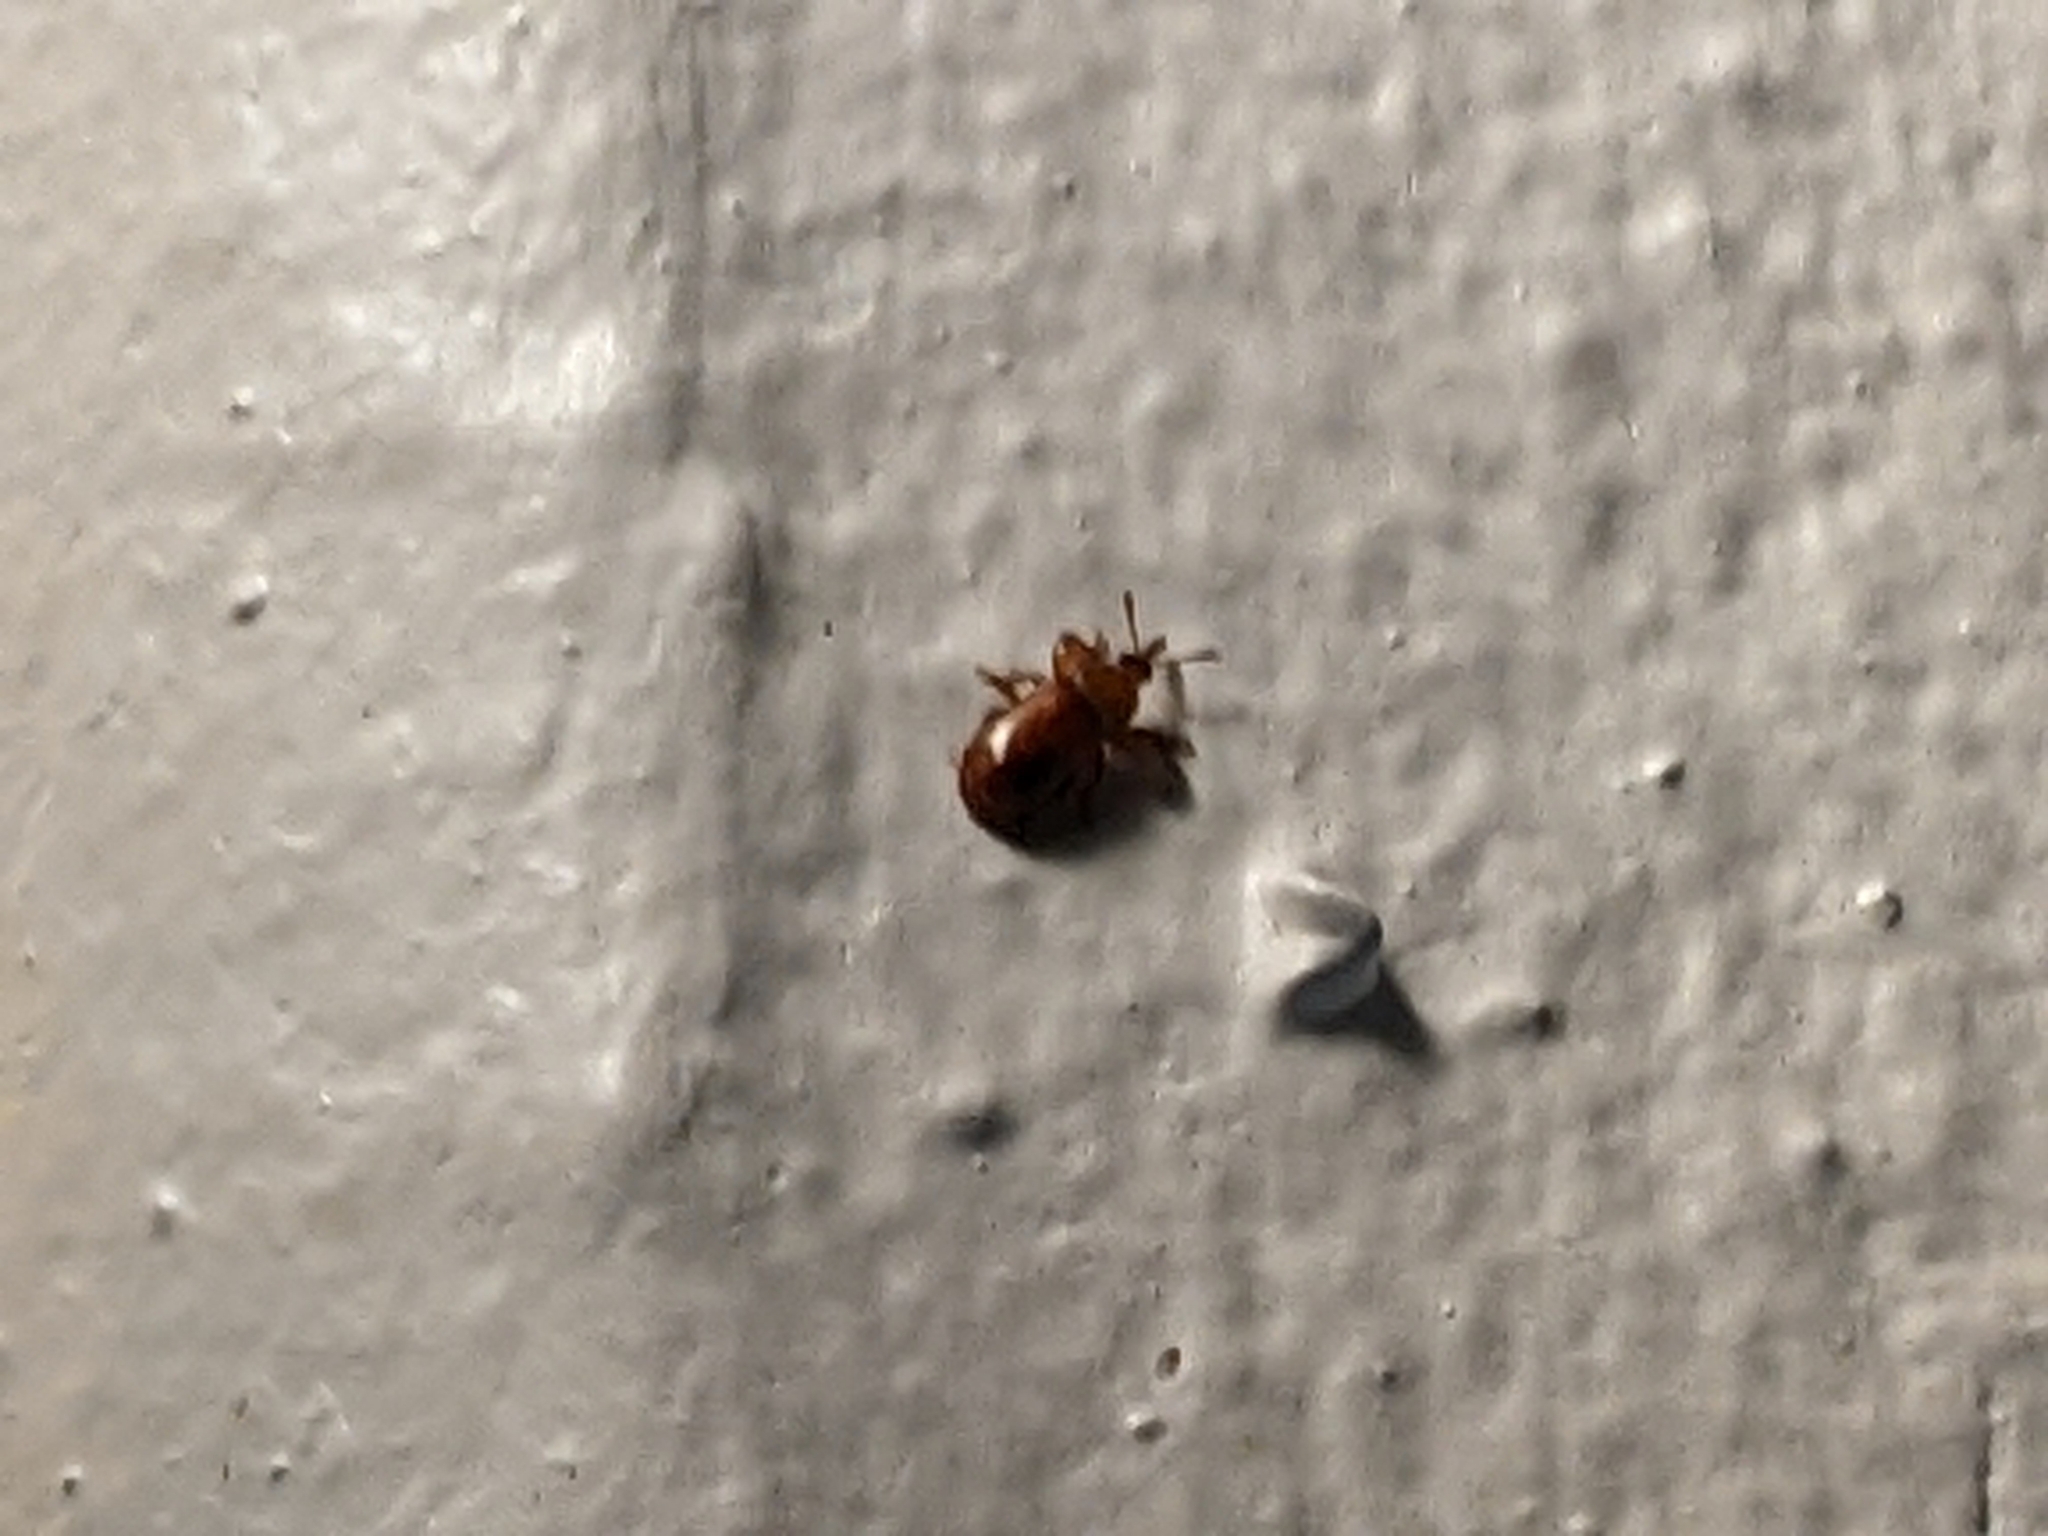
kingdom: Animalia
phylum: Arthropoda
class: Insecta
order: Coleoptera
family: Belidae
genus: Rhopalotria
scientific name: Rhopalotria furfuracea
